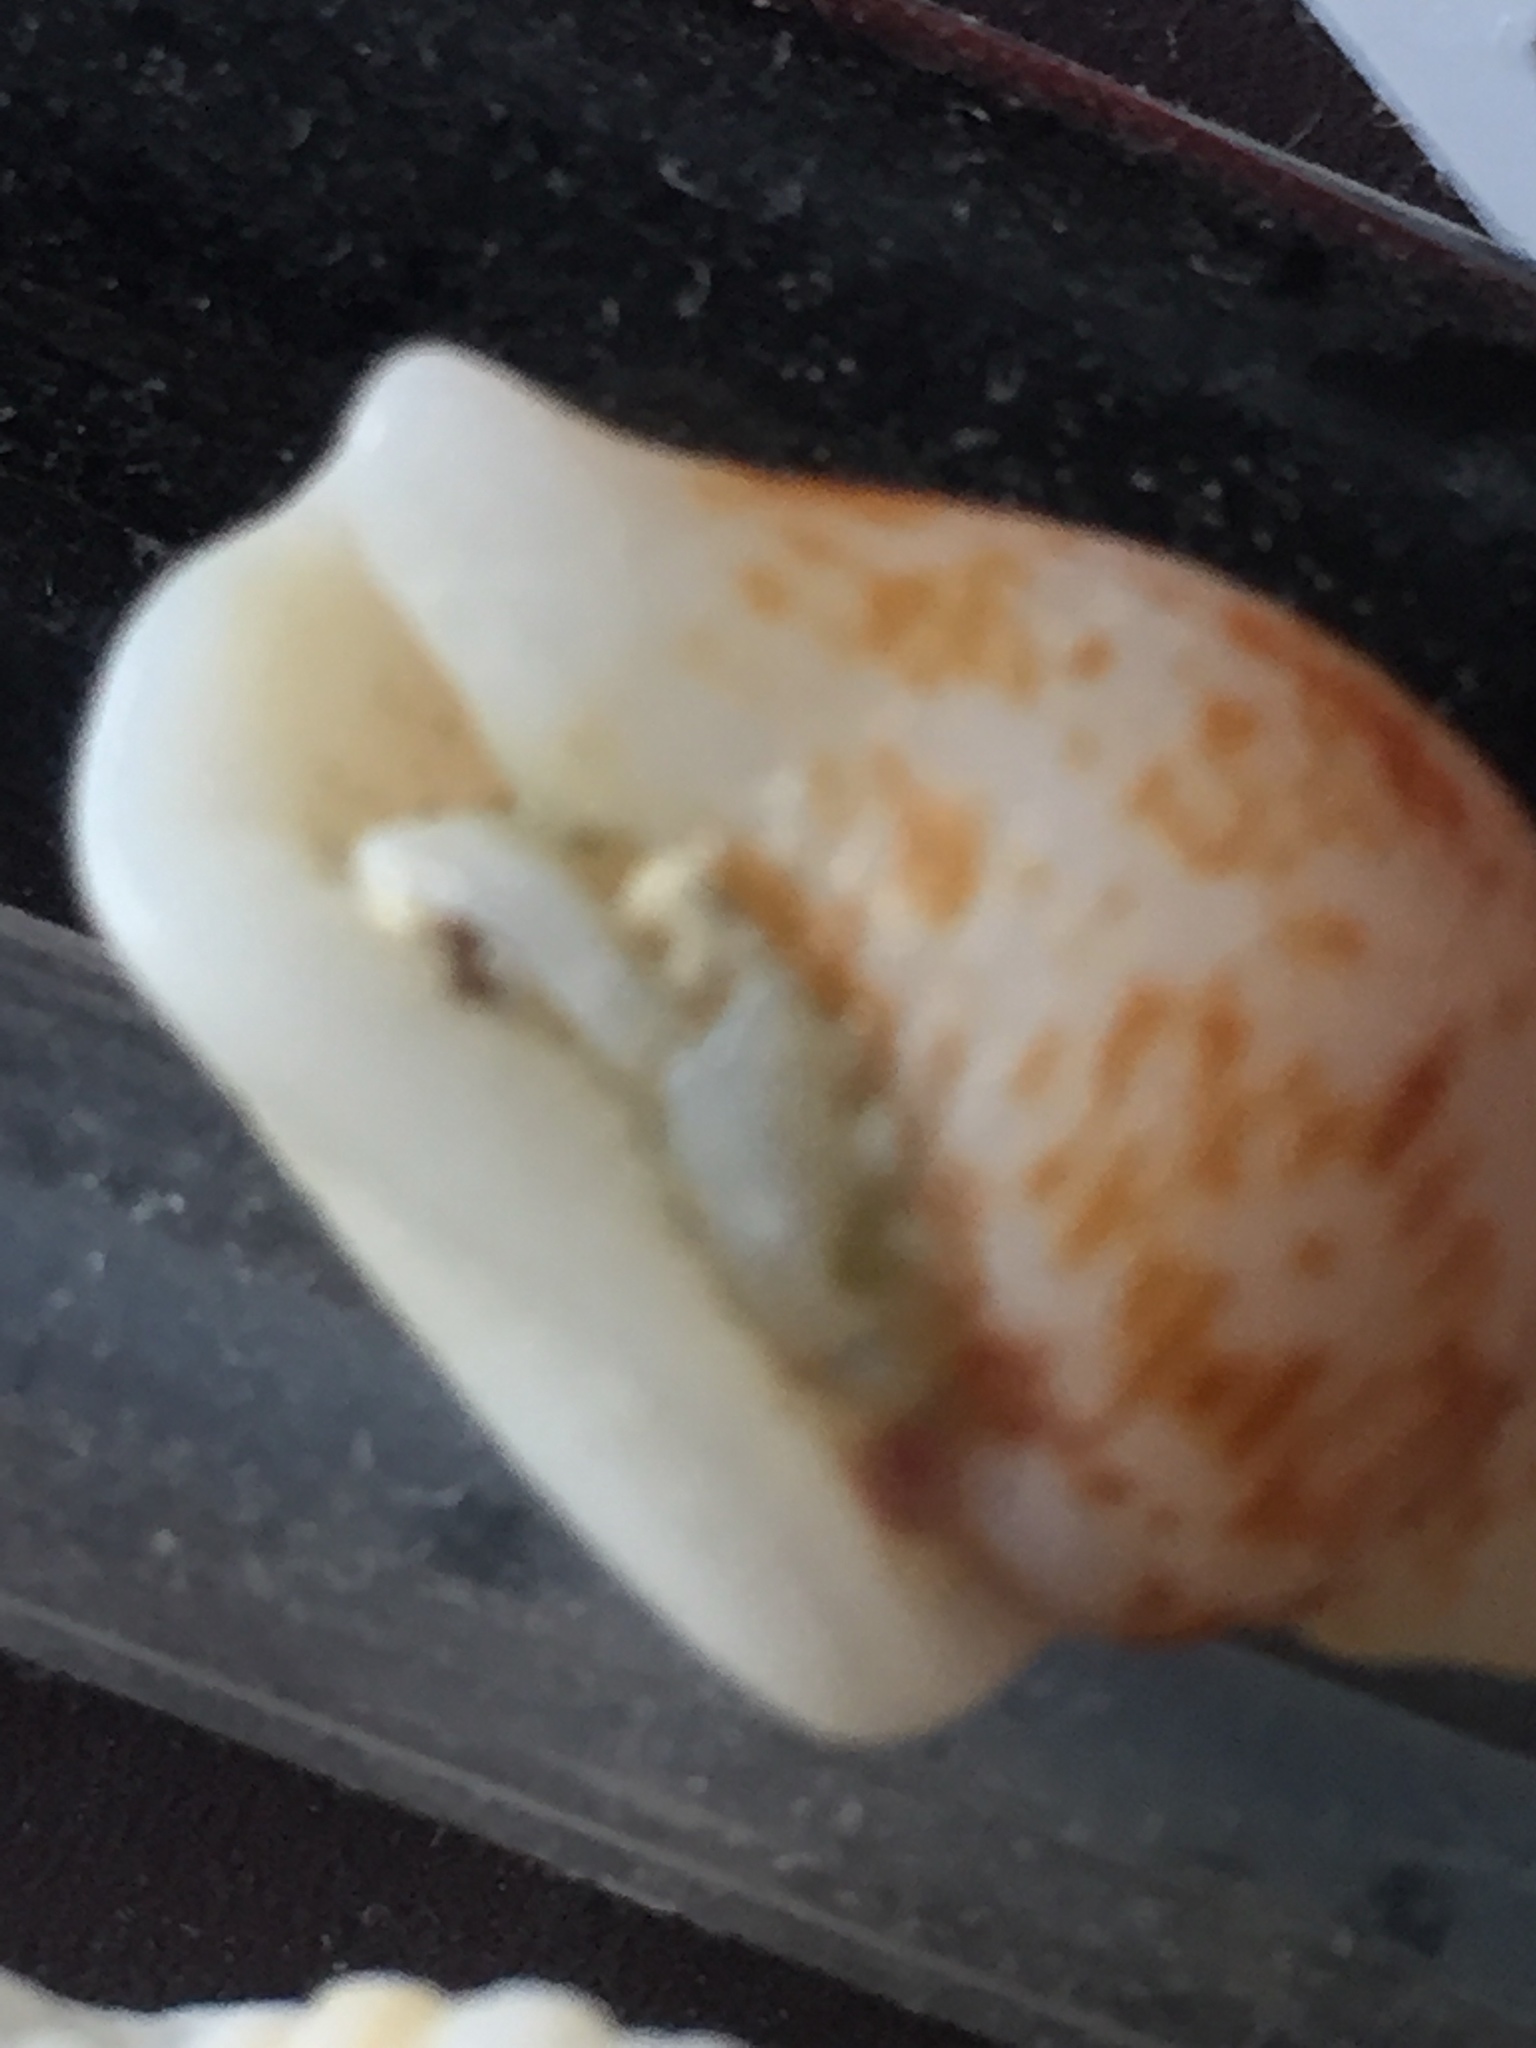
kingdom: Animalia
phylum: Mollusca
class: Gastropoda
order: Neogastropoda
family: Columbellidae
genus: Columbella
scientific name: Columbella mercatoria
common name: West indian dovesnail
